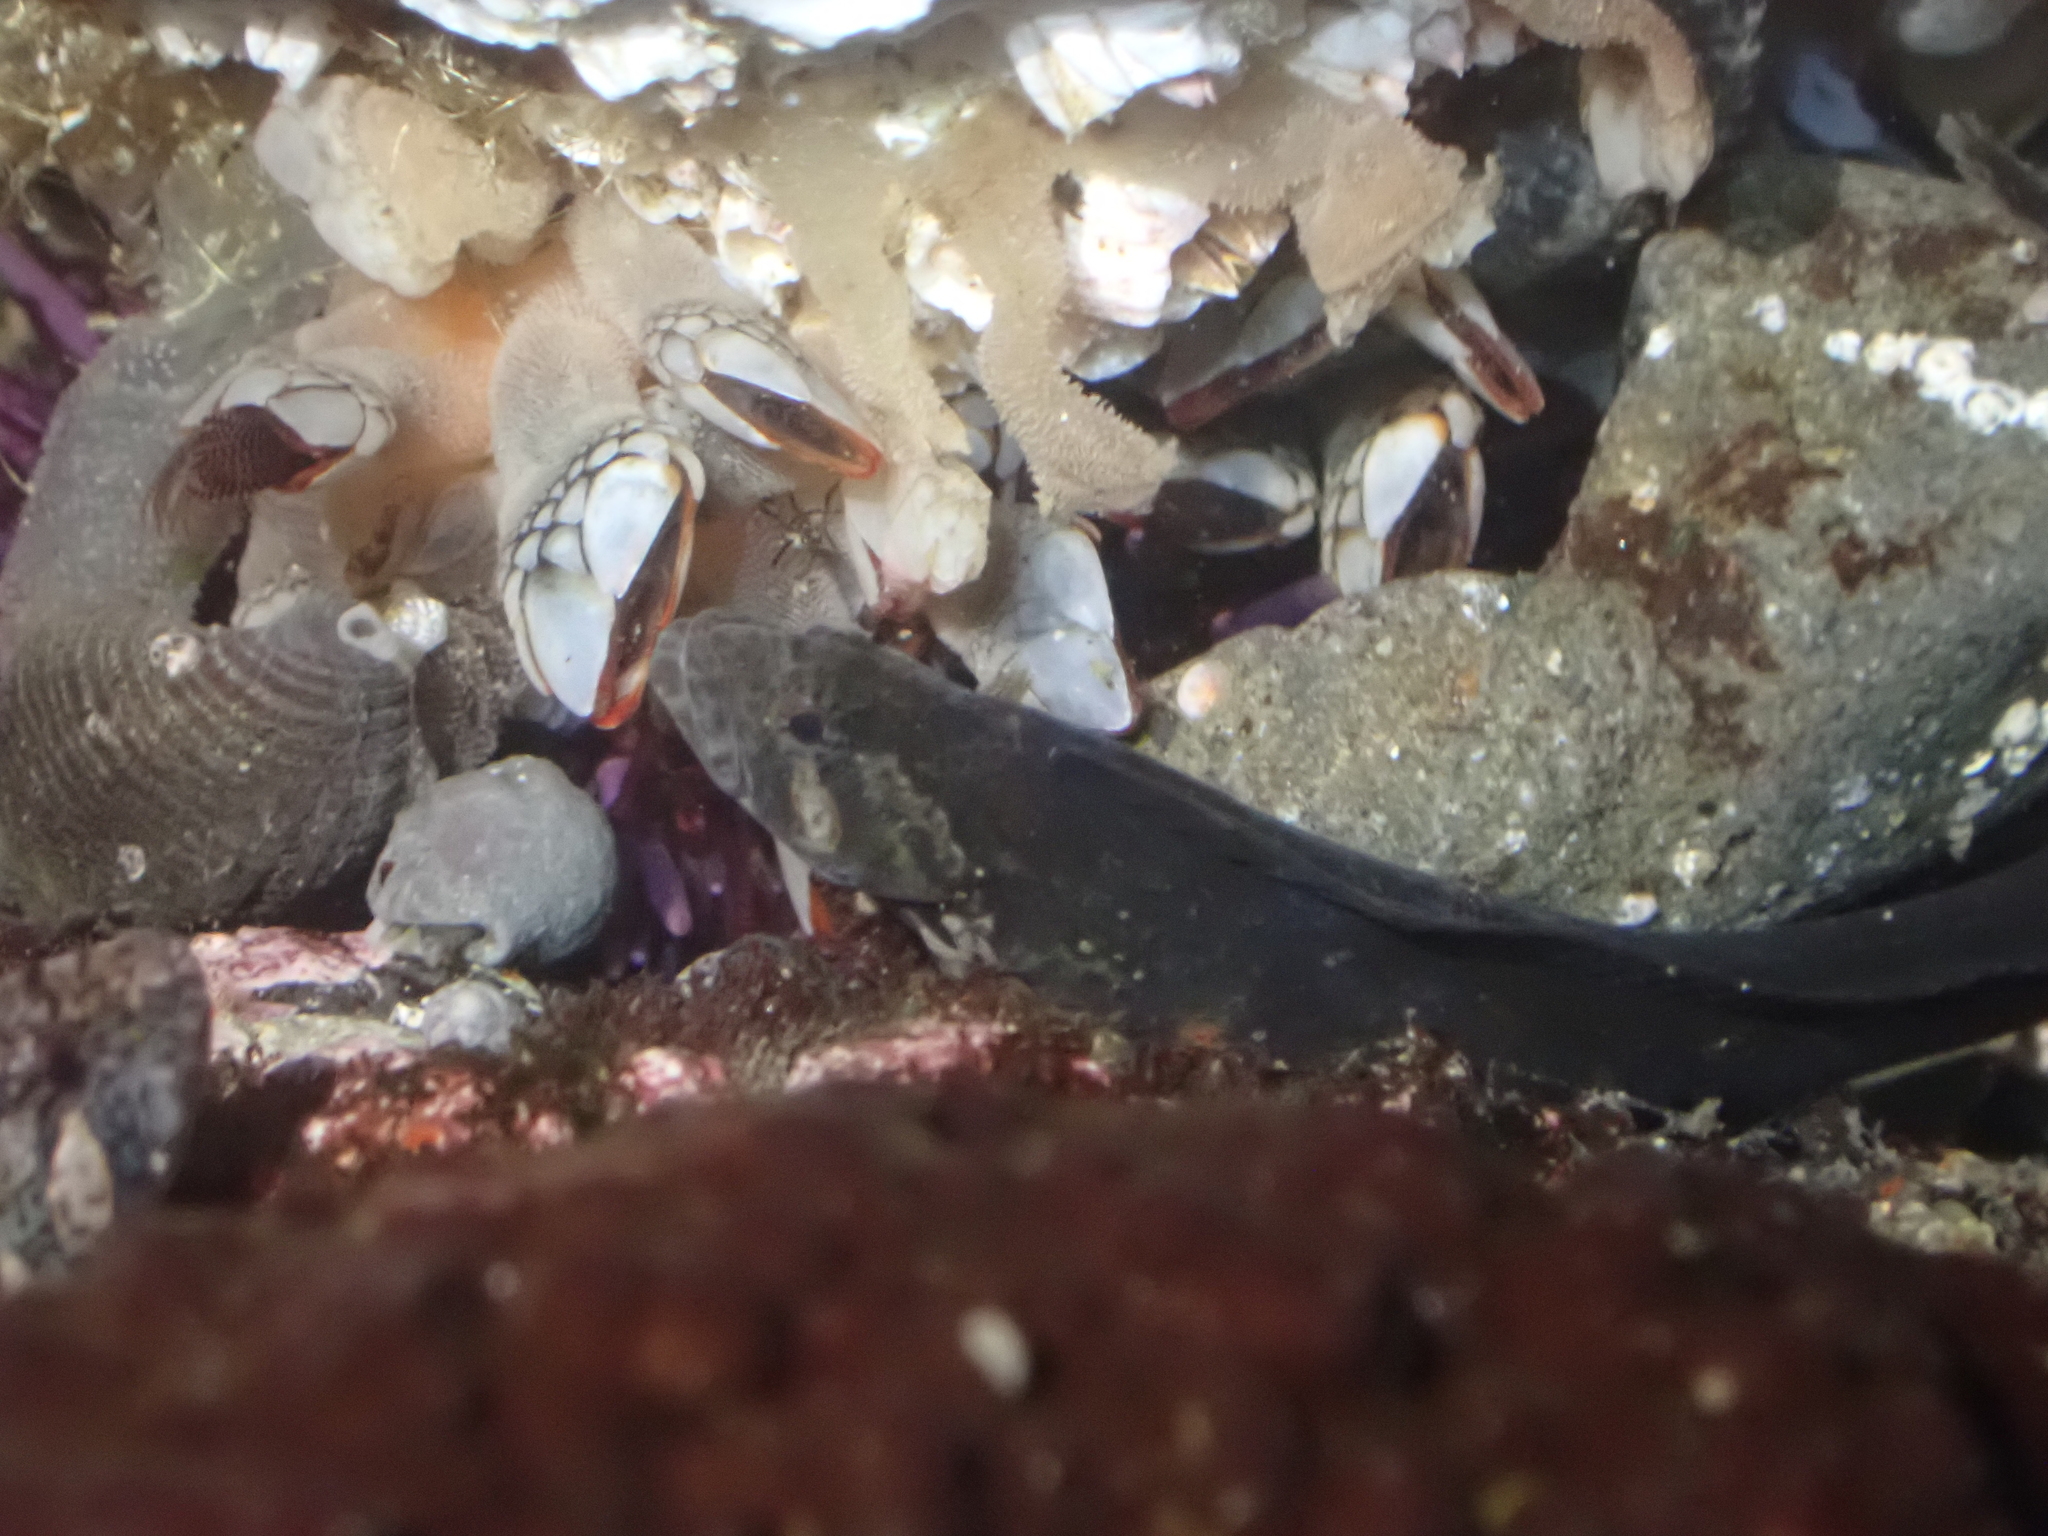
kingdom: Animalia
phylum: Arthropoda
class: Maxillopoda
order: Pedunculata
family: Pollicipedidae
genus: Pollicipes
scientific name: Pollicipes polymerus
